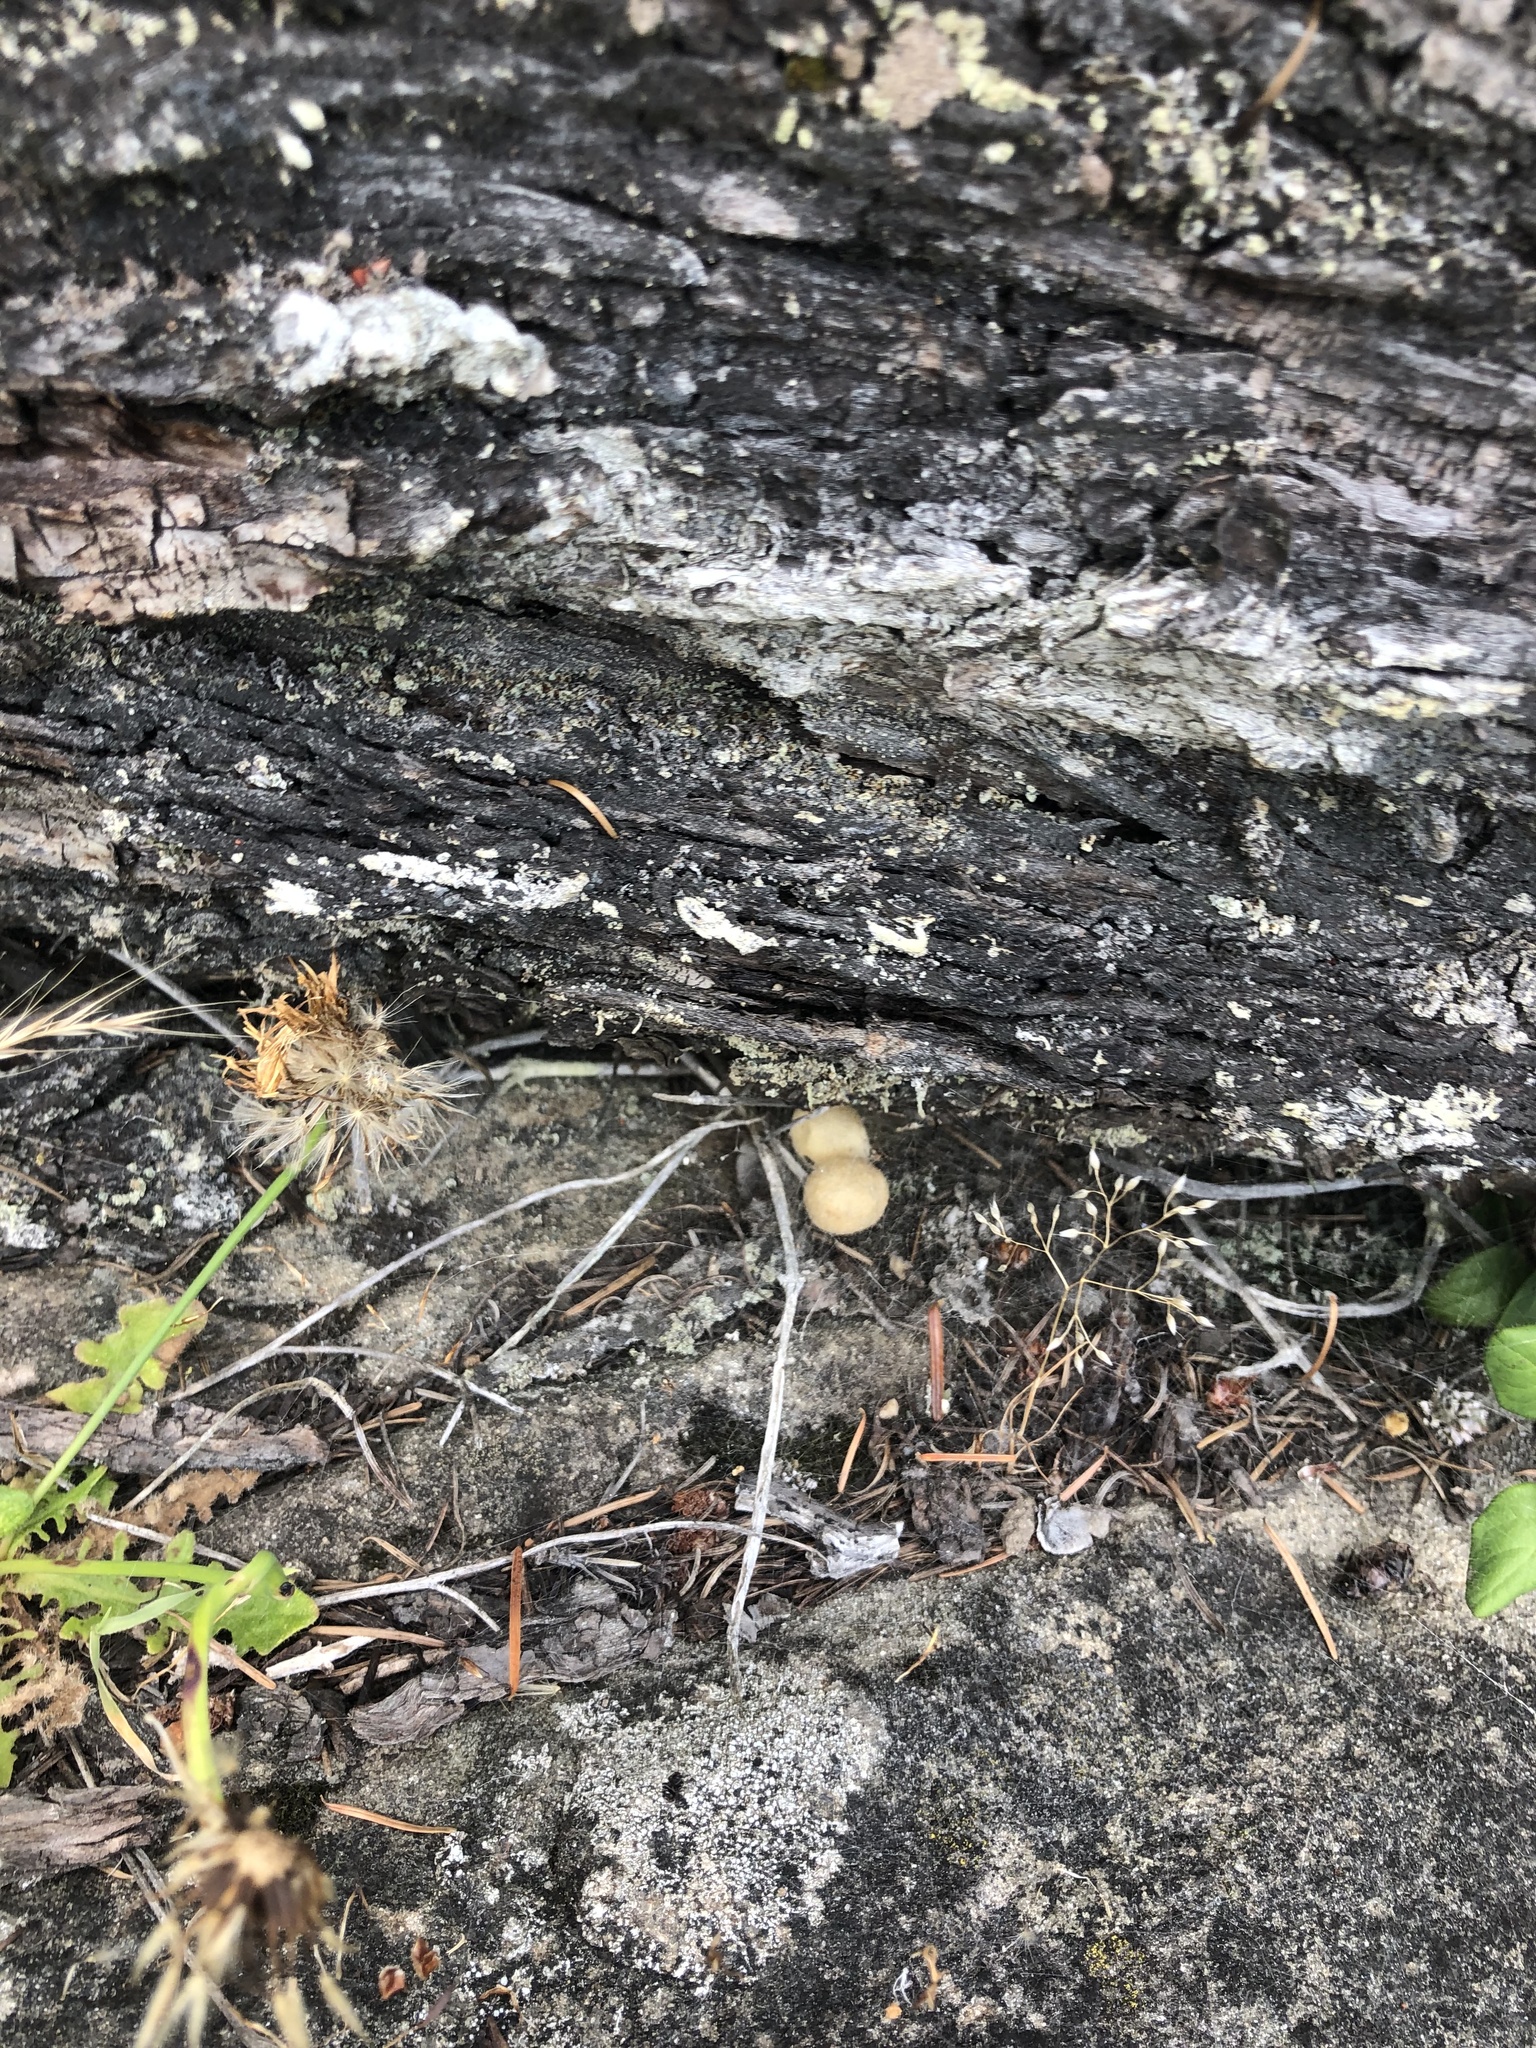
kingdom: Animalia
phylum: Arthropoda
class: Arachnida
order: Araneae
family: Theridiidae
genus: Latrodectus
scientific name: Latrodectus hesperus
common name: Western black widow
